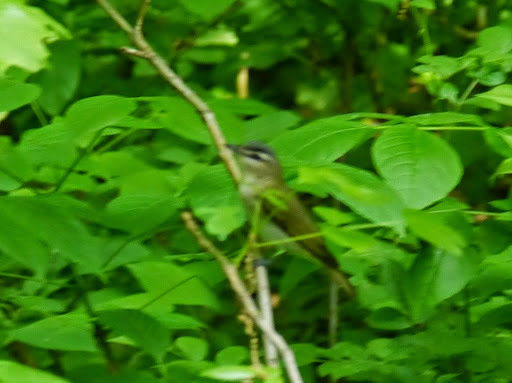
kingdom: Animalia
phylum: Chordata
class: Aves
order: Passeriformes
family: Vireonidae
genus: Vireo
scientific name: Vireo olivaceus
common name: Red-eyed vireo
